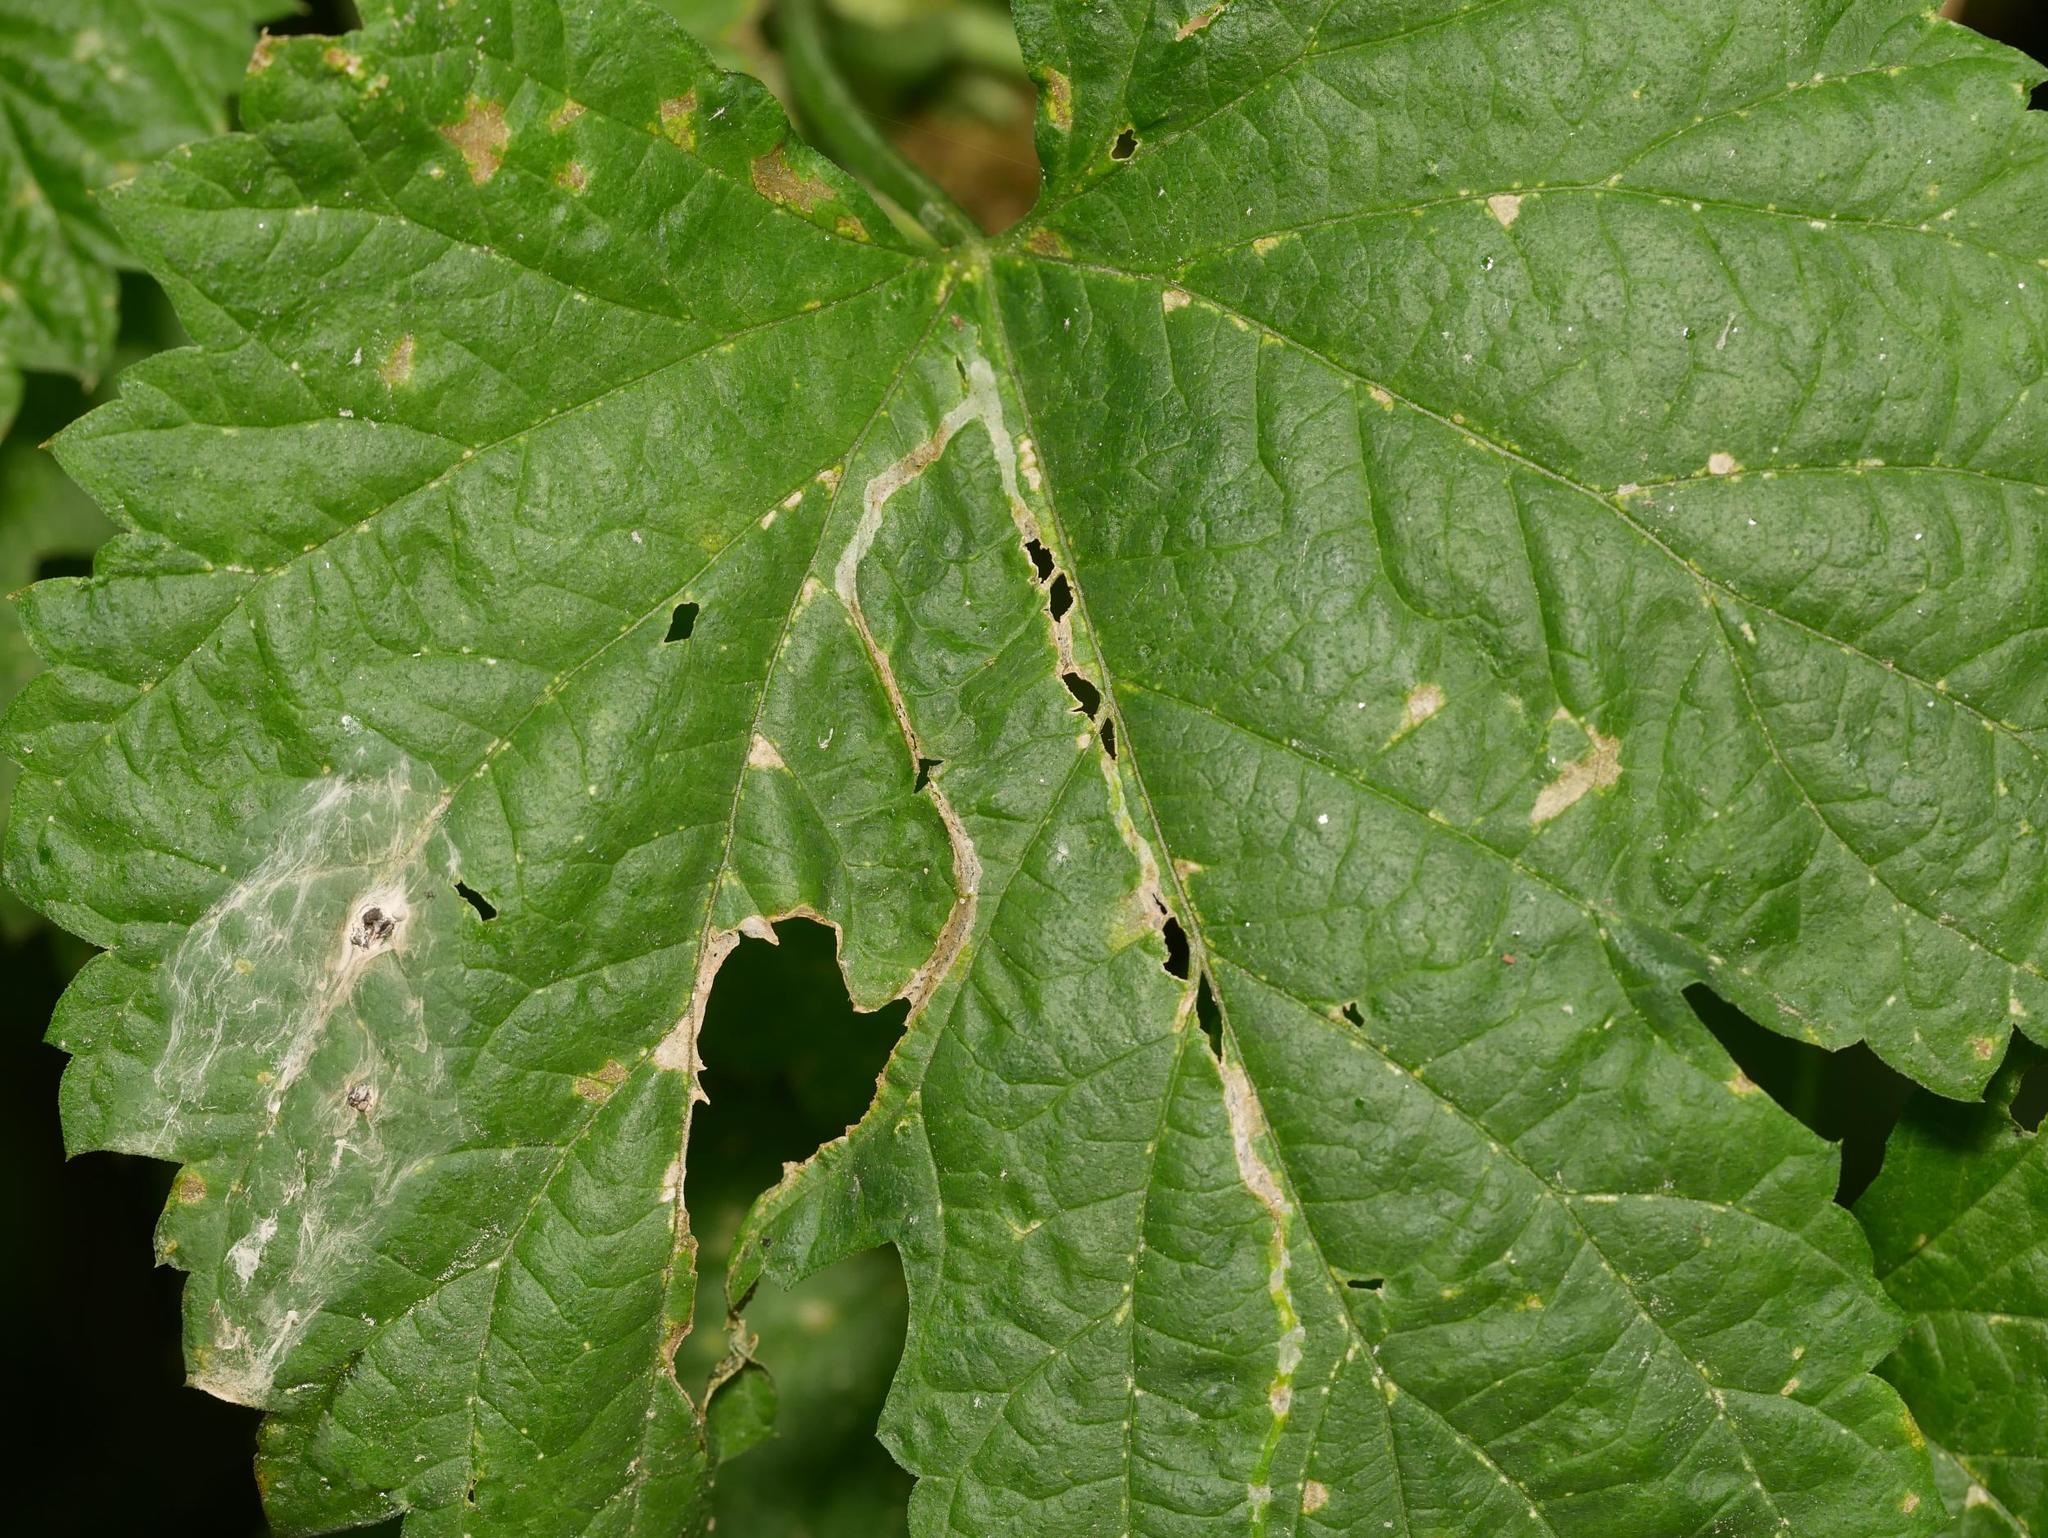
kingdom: Animalia
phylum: Arthropoda
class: Insecta
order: Diptera
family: Agromyzidae
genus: Agromyza
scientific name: Agromyza igniceps
